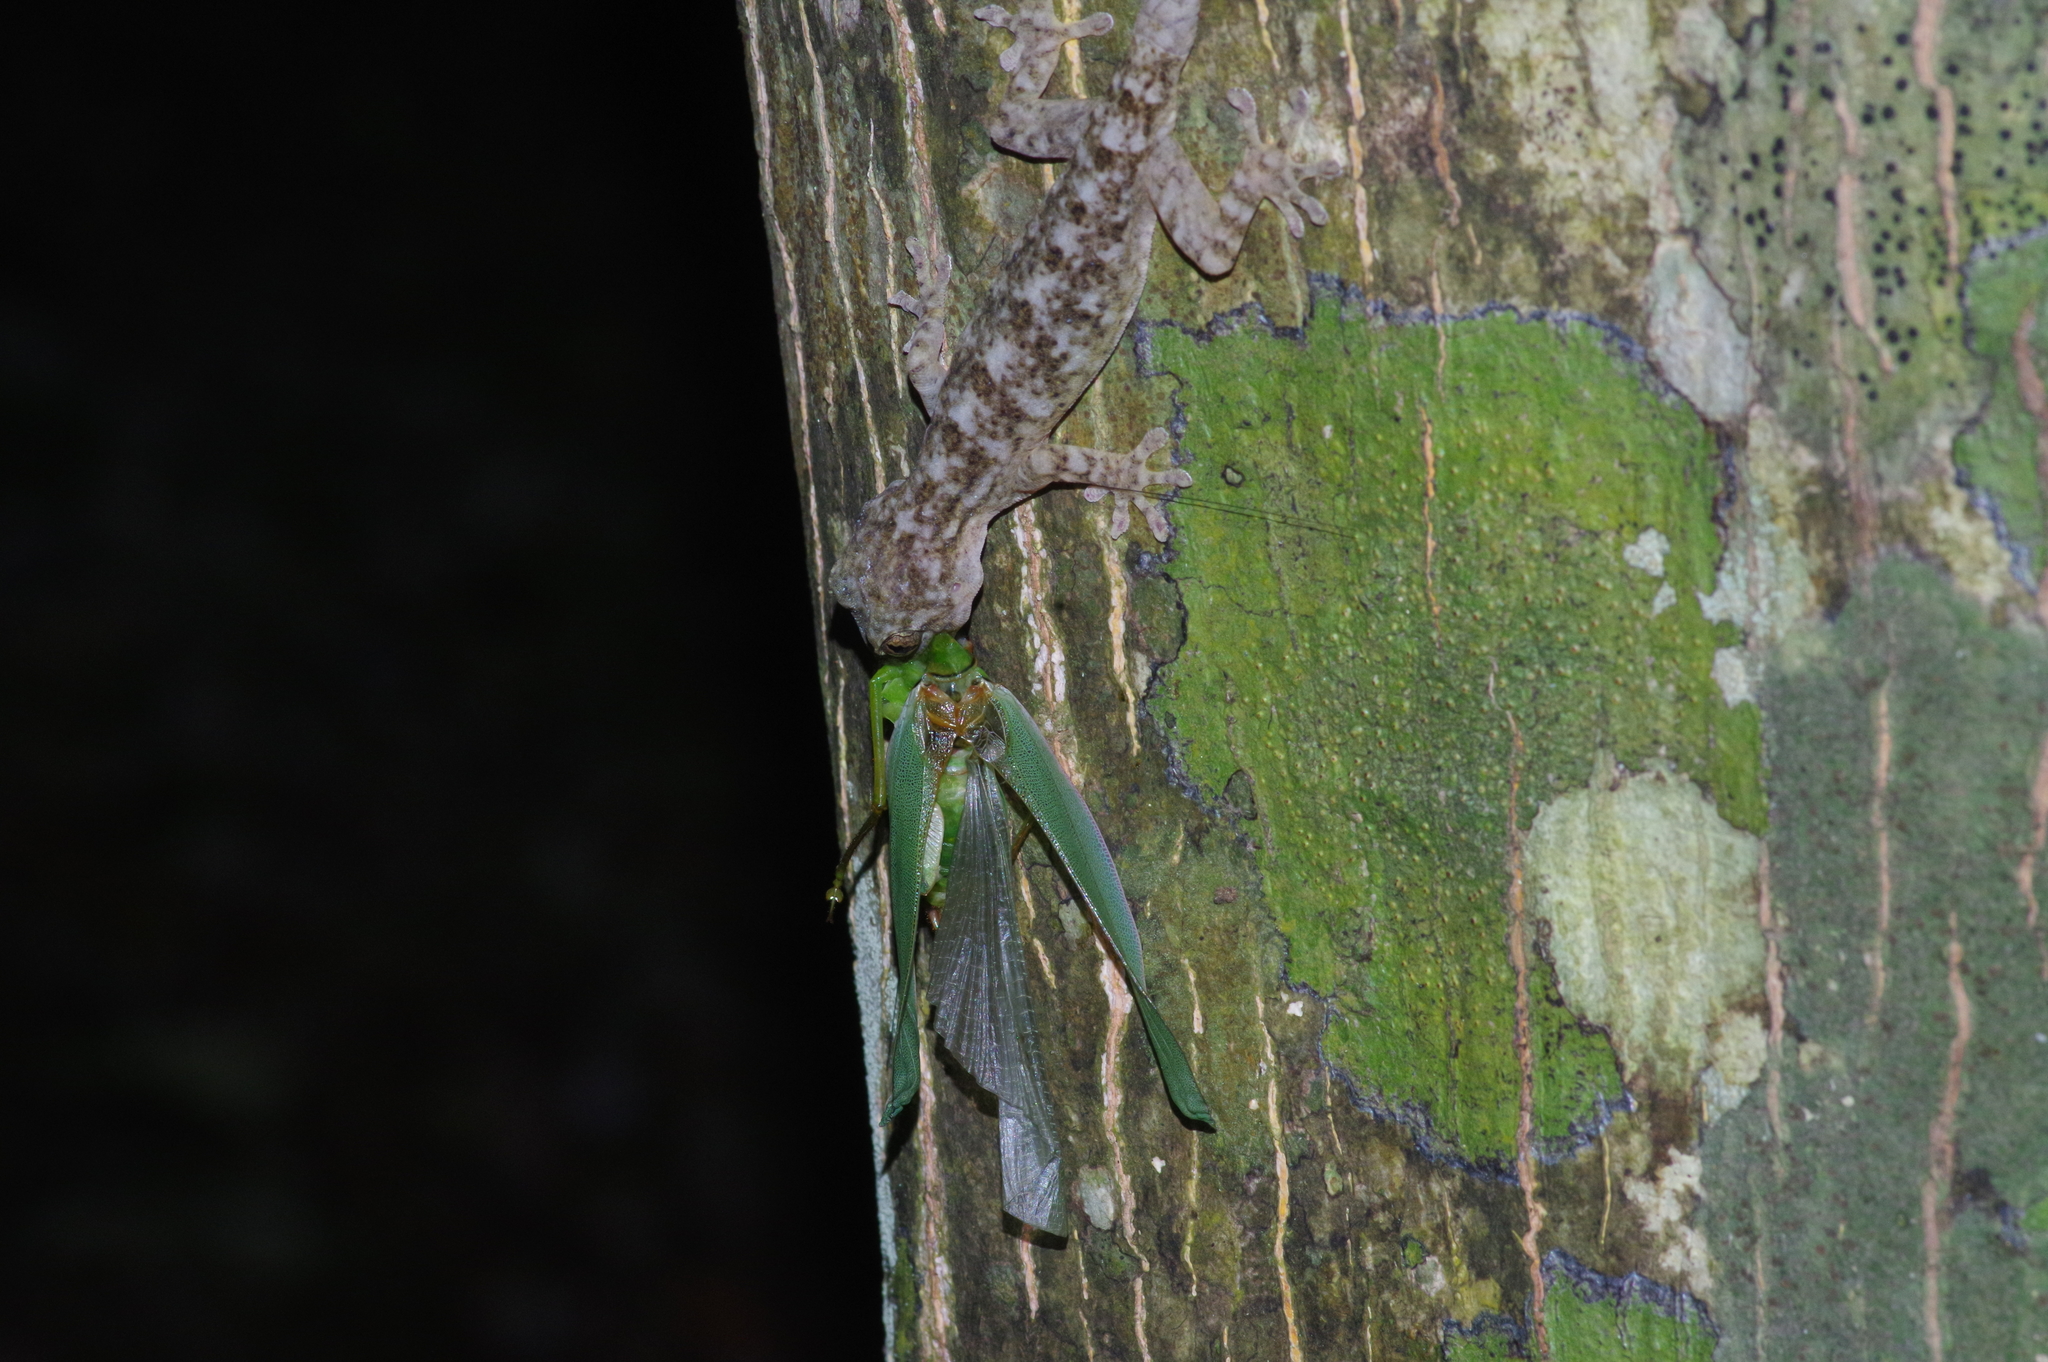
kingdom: Animalia
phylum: Arthropoda
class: Insecta
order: Orthoptera
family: Tettigoniidae
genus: Psyrana
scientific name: Psyrana ryukyuensis
